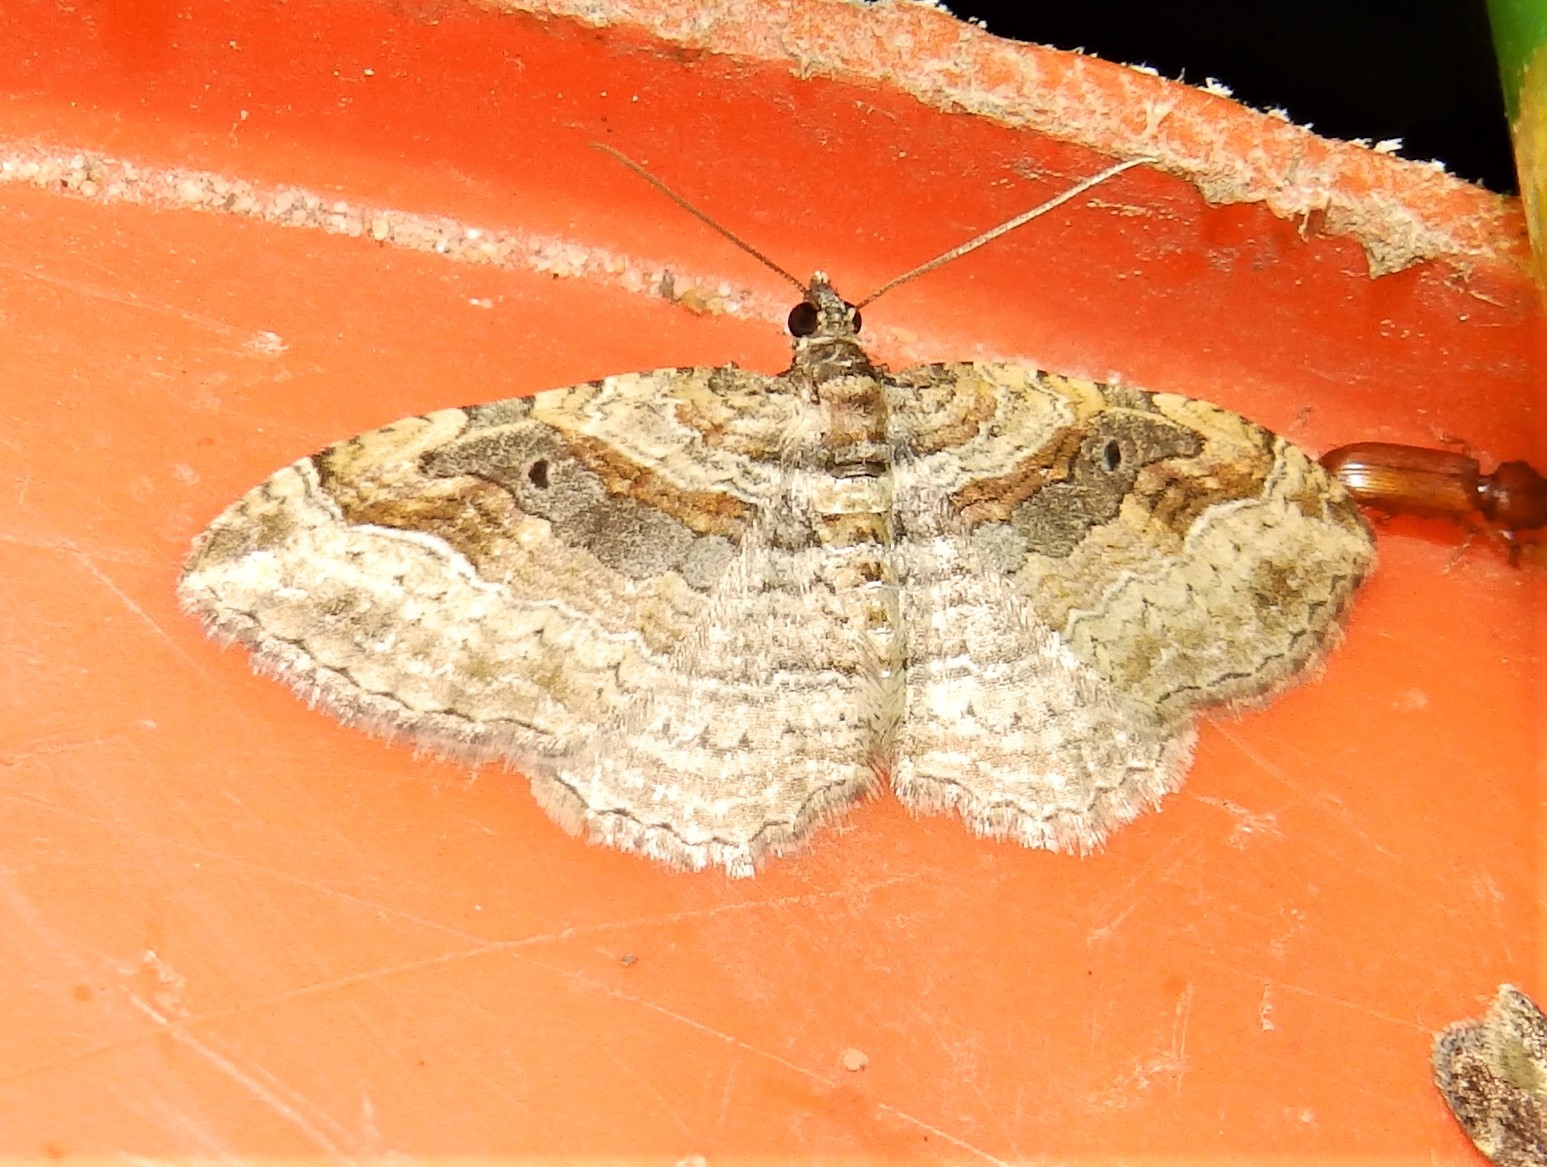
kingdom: Animalia
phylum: Arthropoda
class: Insecta
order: Lepidoptera
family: Geometridae
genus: Costaconvexa
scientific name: Costaconvexa centrostrigaria
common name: Bent-line carpet
